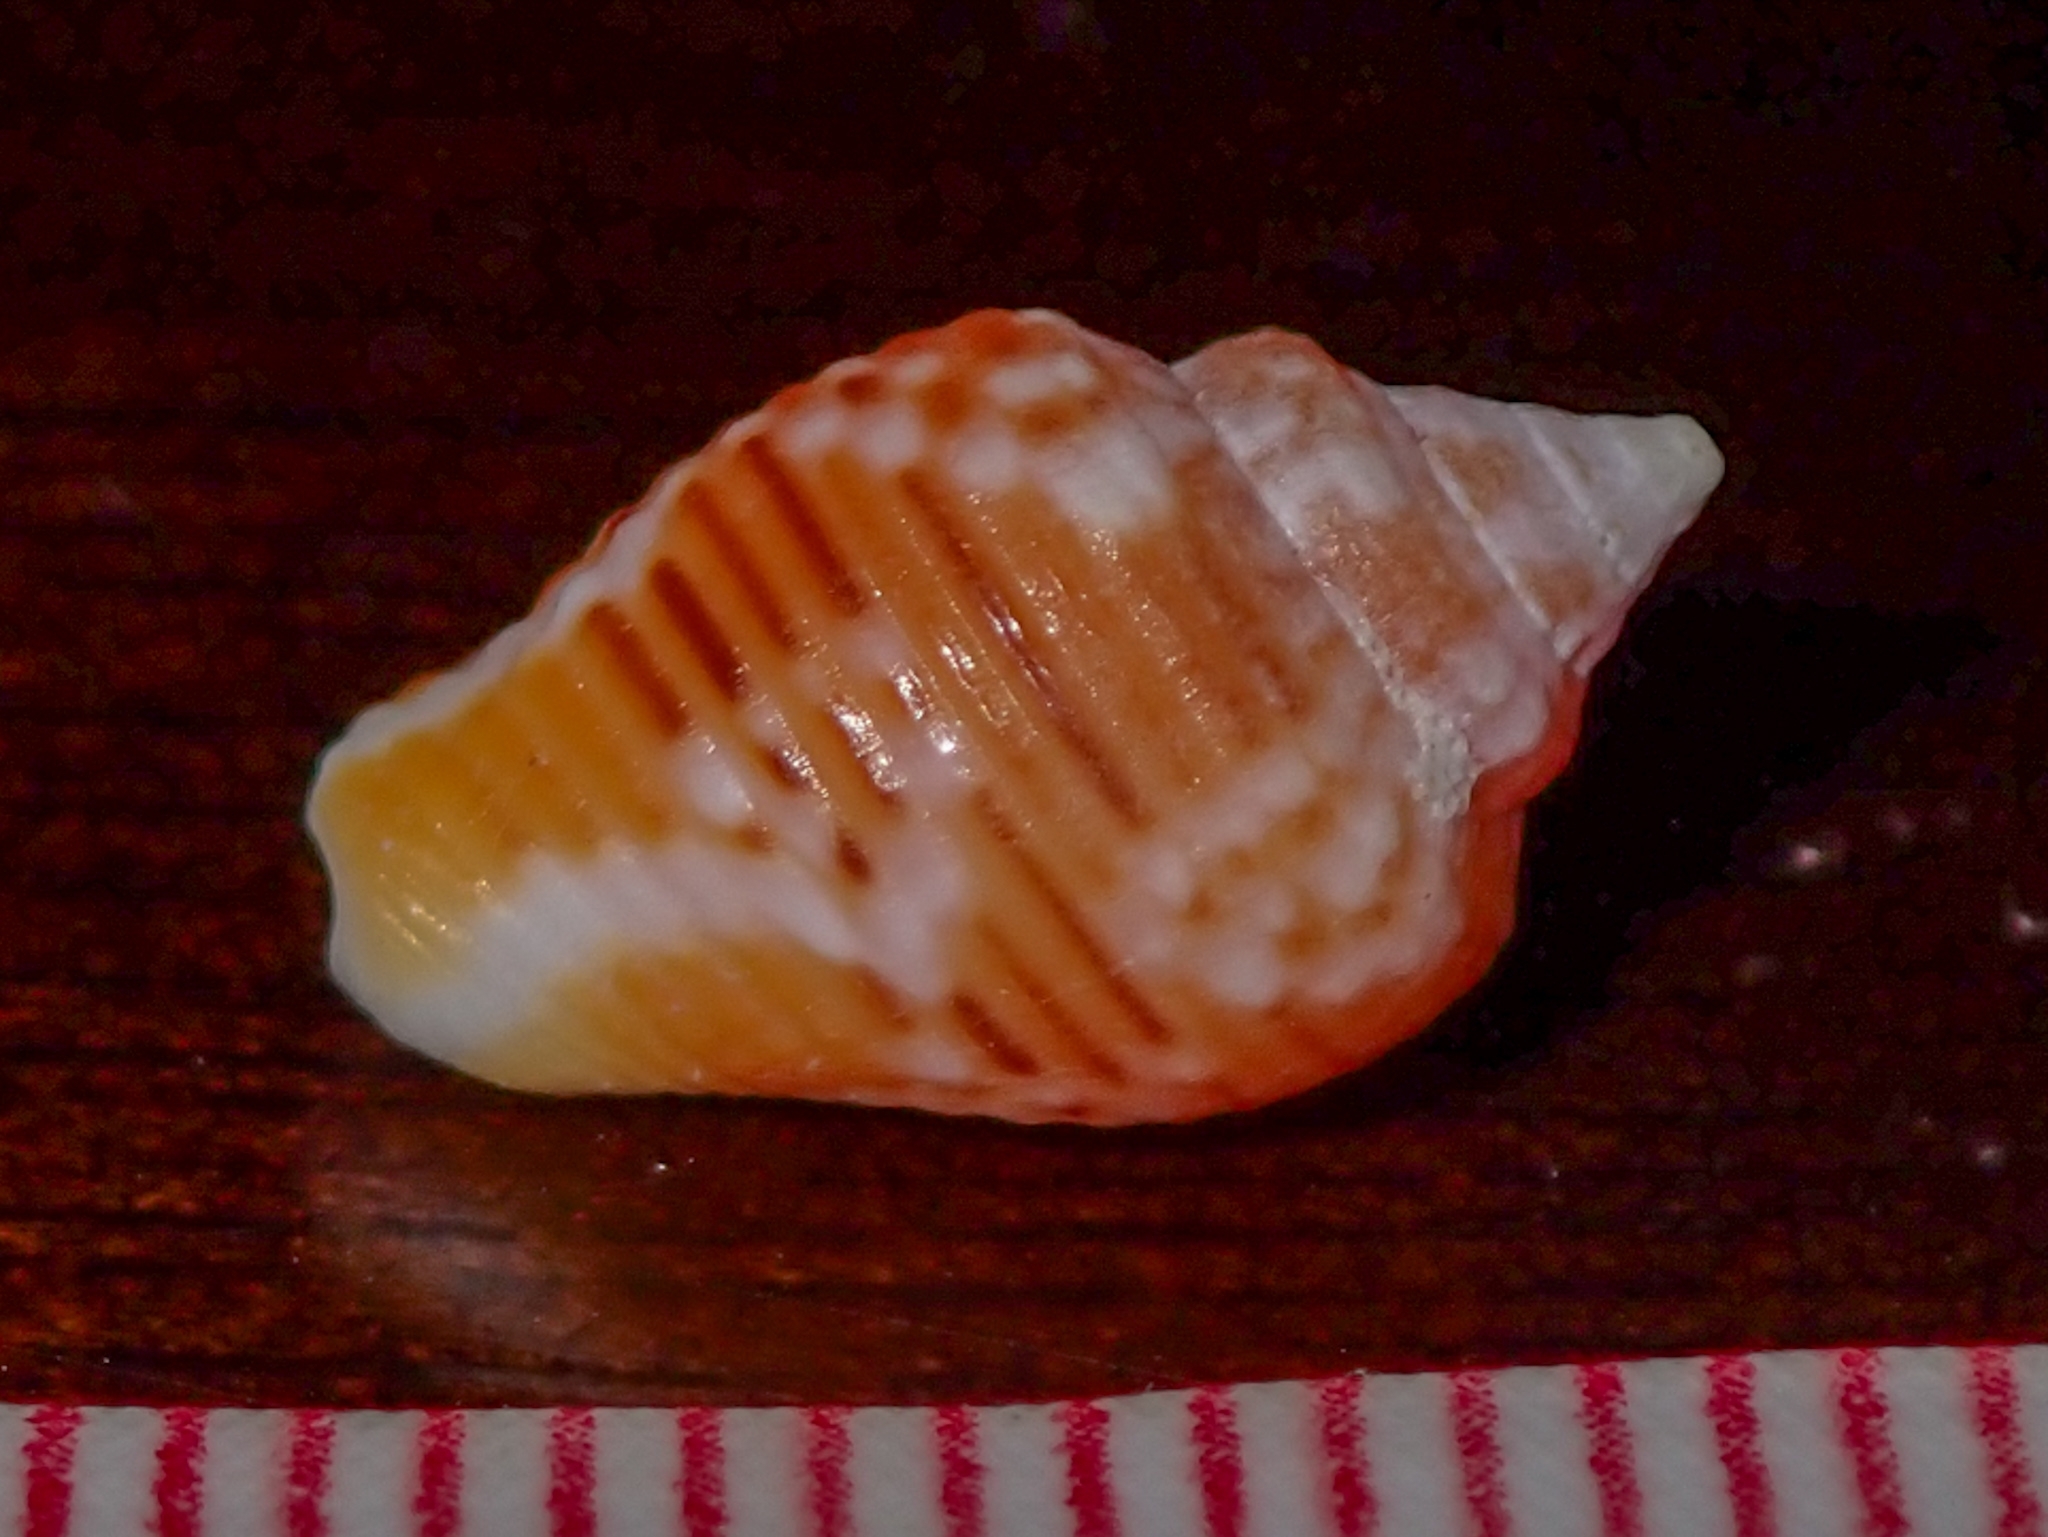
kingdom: Animalia
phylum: Mollusca
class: Gastropoda
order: Neogastropoda
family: Columbellidae
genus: Columbella
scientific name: Columbella mercatoria
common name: West indian dovesnail
